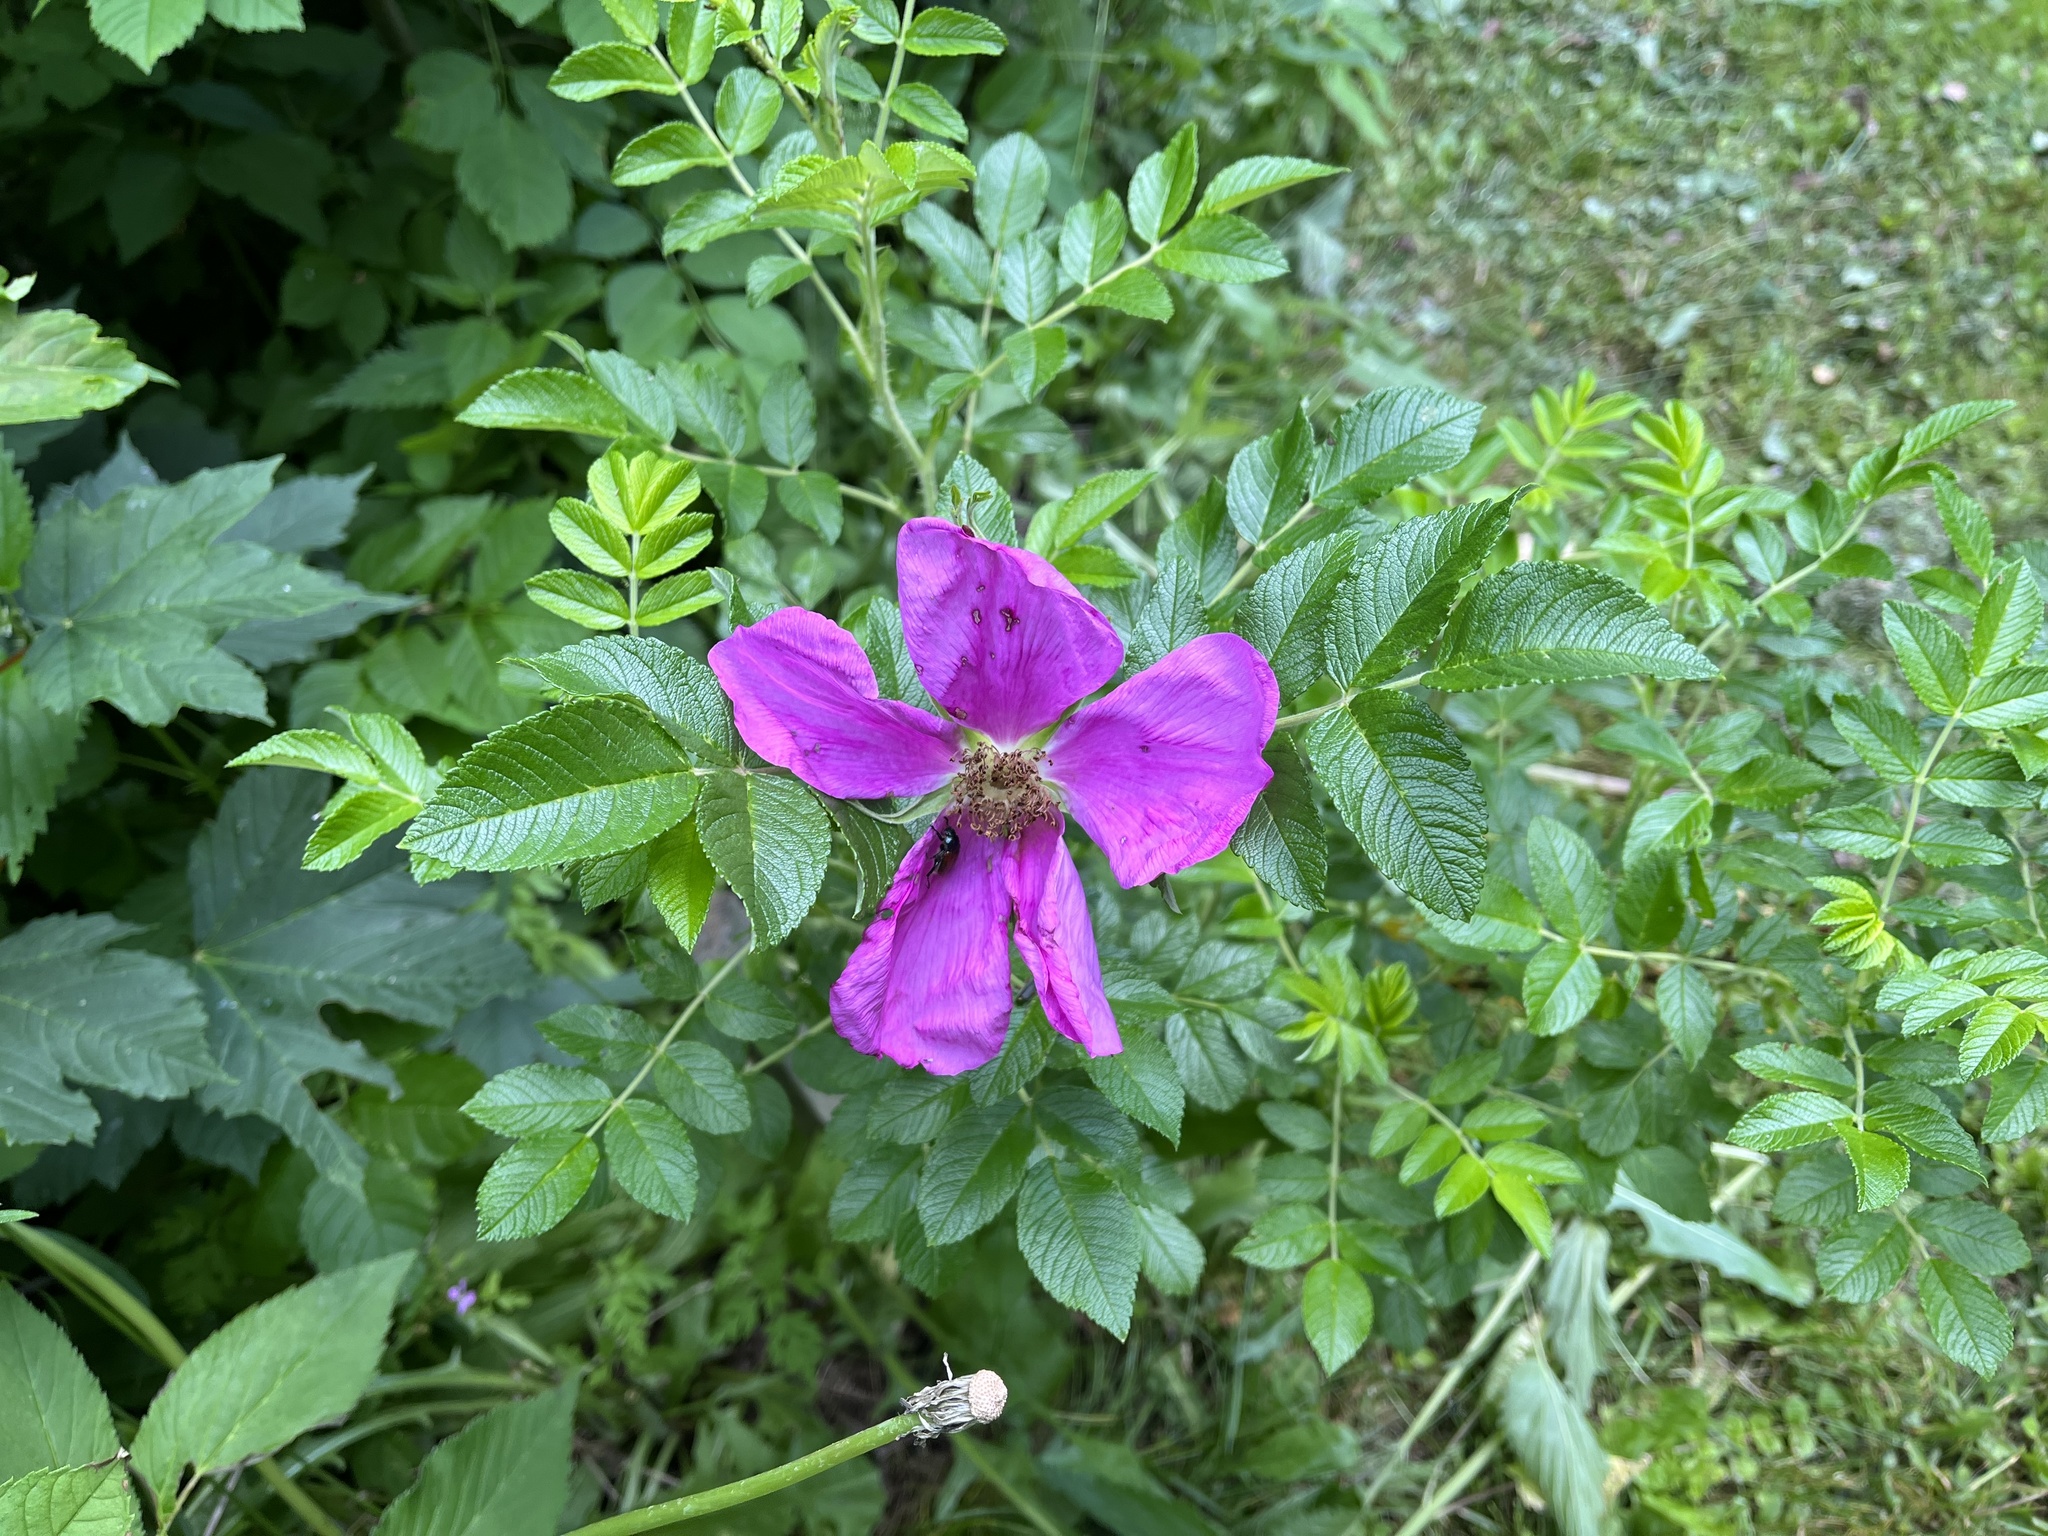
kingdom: Plantae
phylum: Tracheophyta
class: Magnoliopsida
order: Rosales
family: Rosaceae
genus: Rosa
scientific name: Rosa rugosa
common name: Japanese rose
